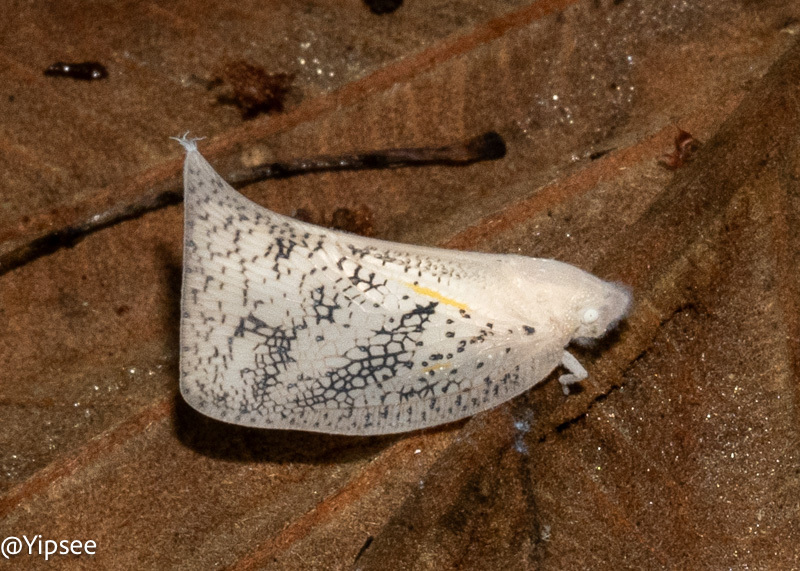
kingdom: Animalia
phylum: Arthropoda
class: Insecta
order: Hemiptera
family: Flatidae
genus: Lawana
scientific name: Lawana conspersa
